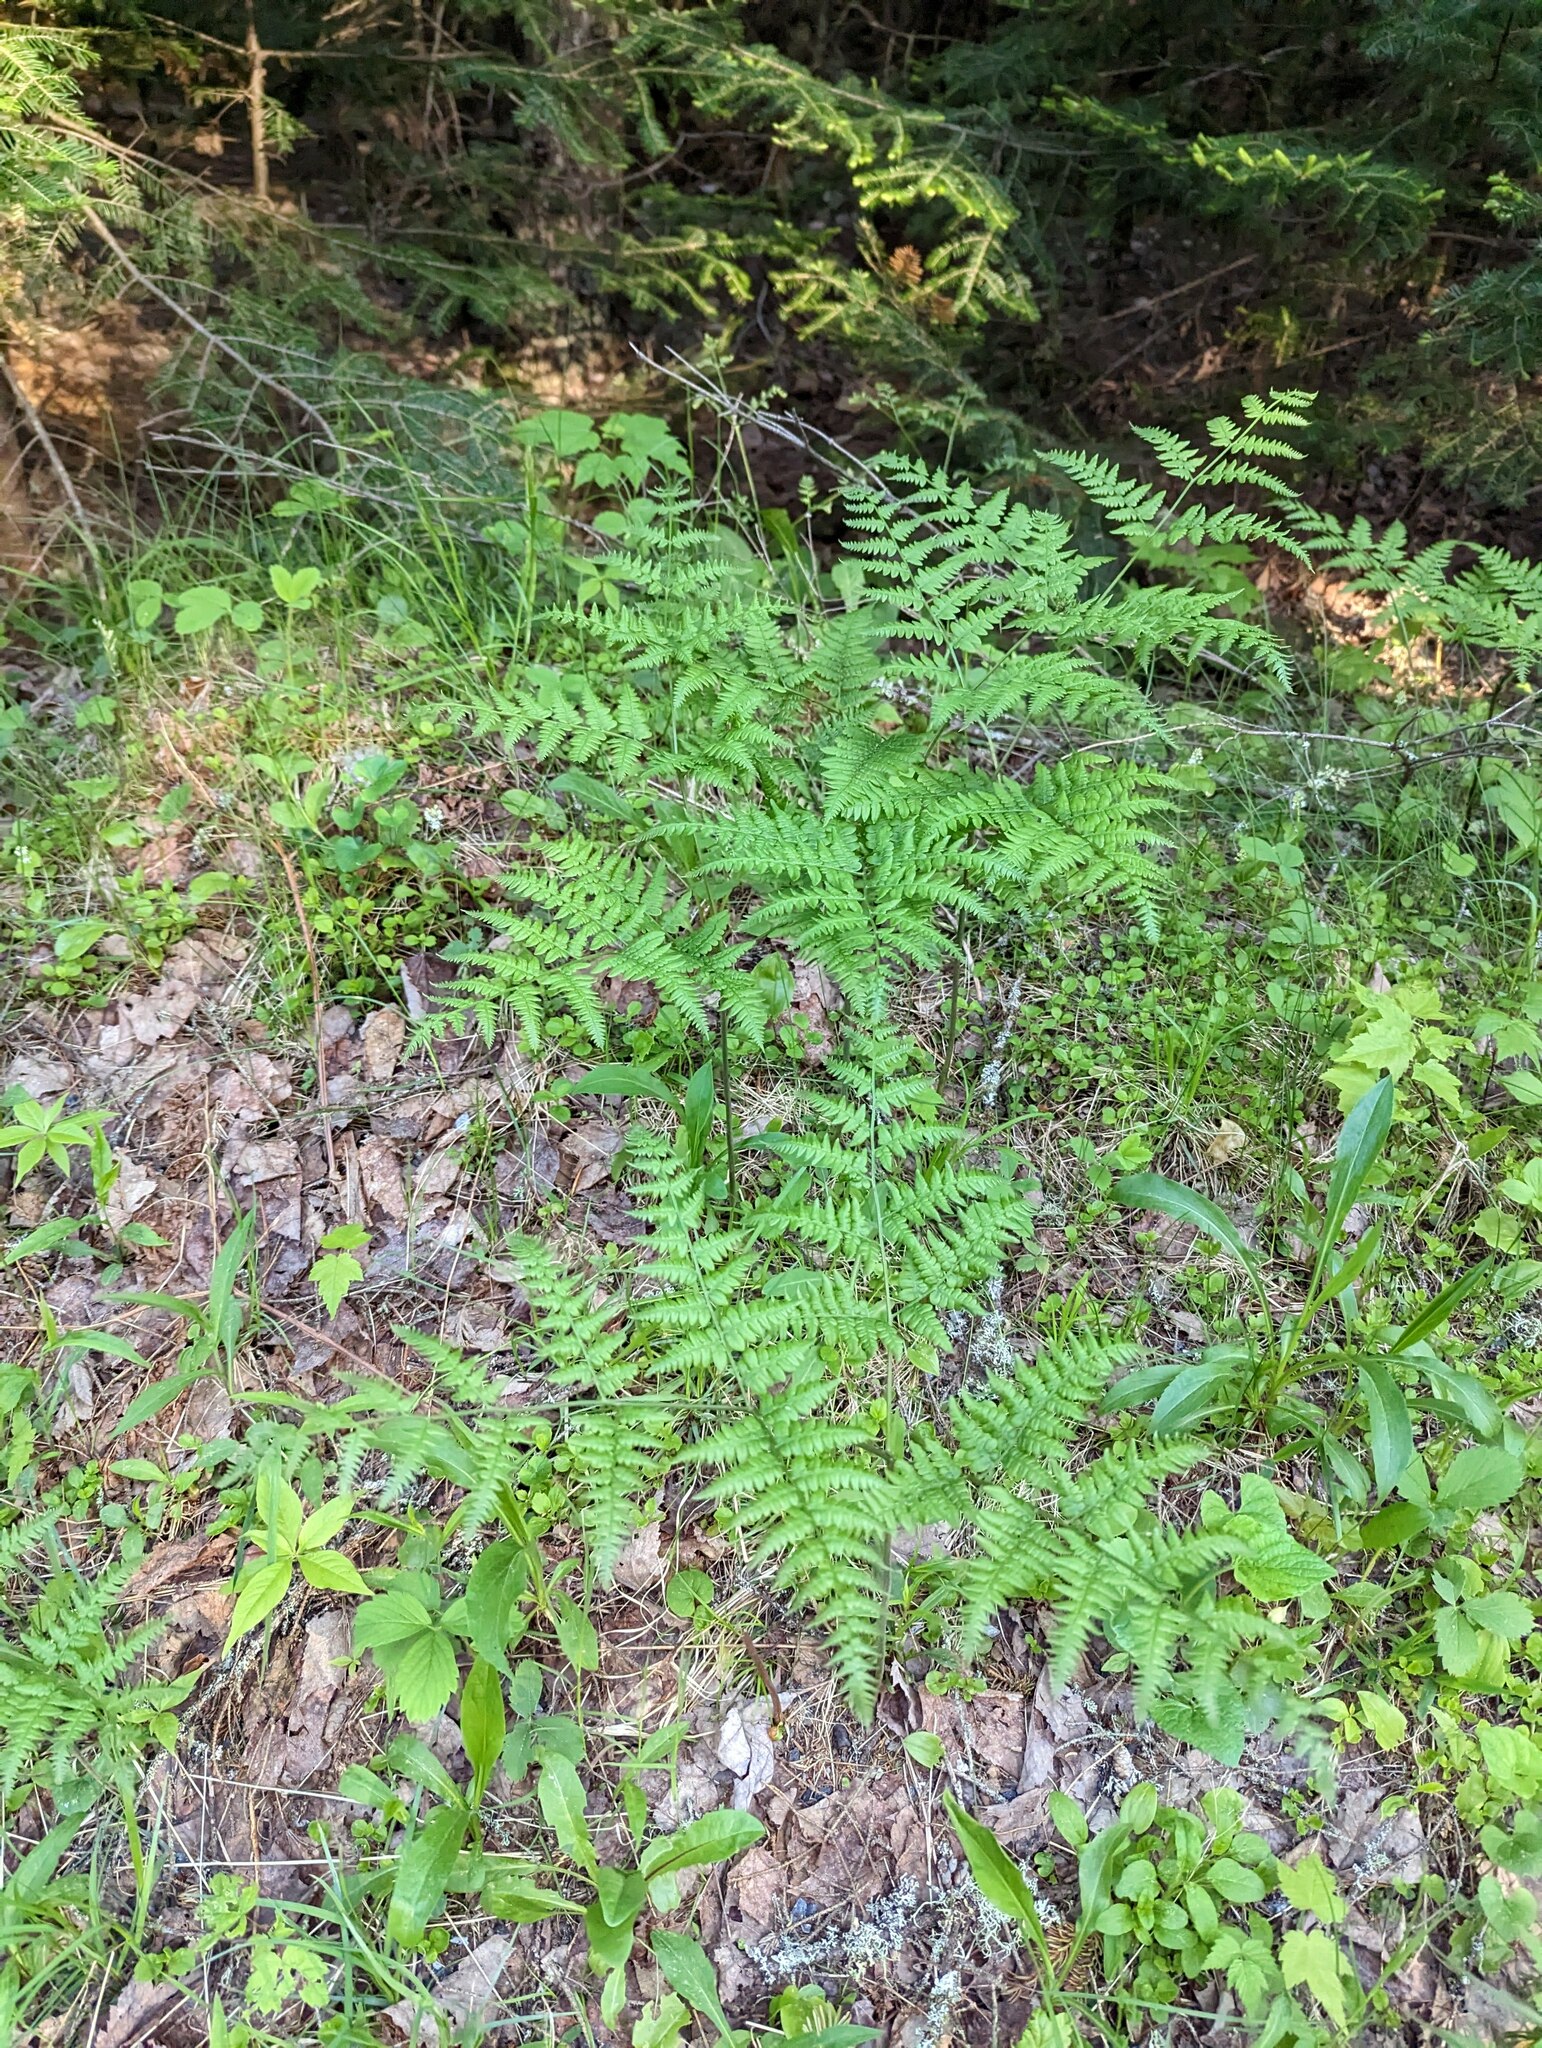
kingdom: Plantae
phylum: Tracheophyta
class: Polypodiopsida
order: Polypodiales
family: Dennstaedtiaceae
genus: Pteridium
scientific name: Pteridium aquilinum
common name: Bracken
